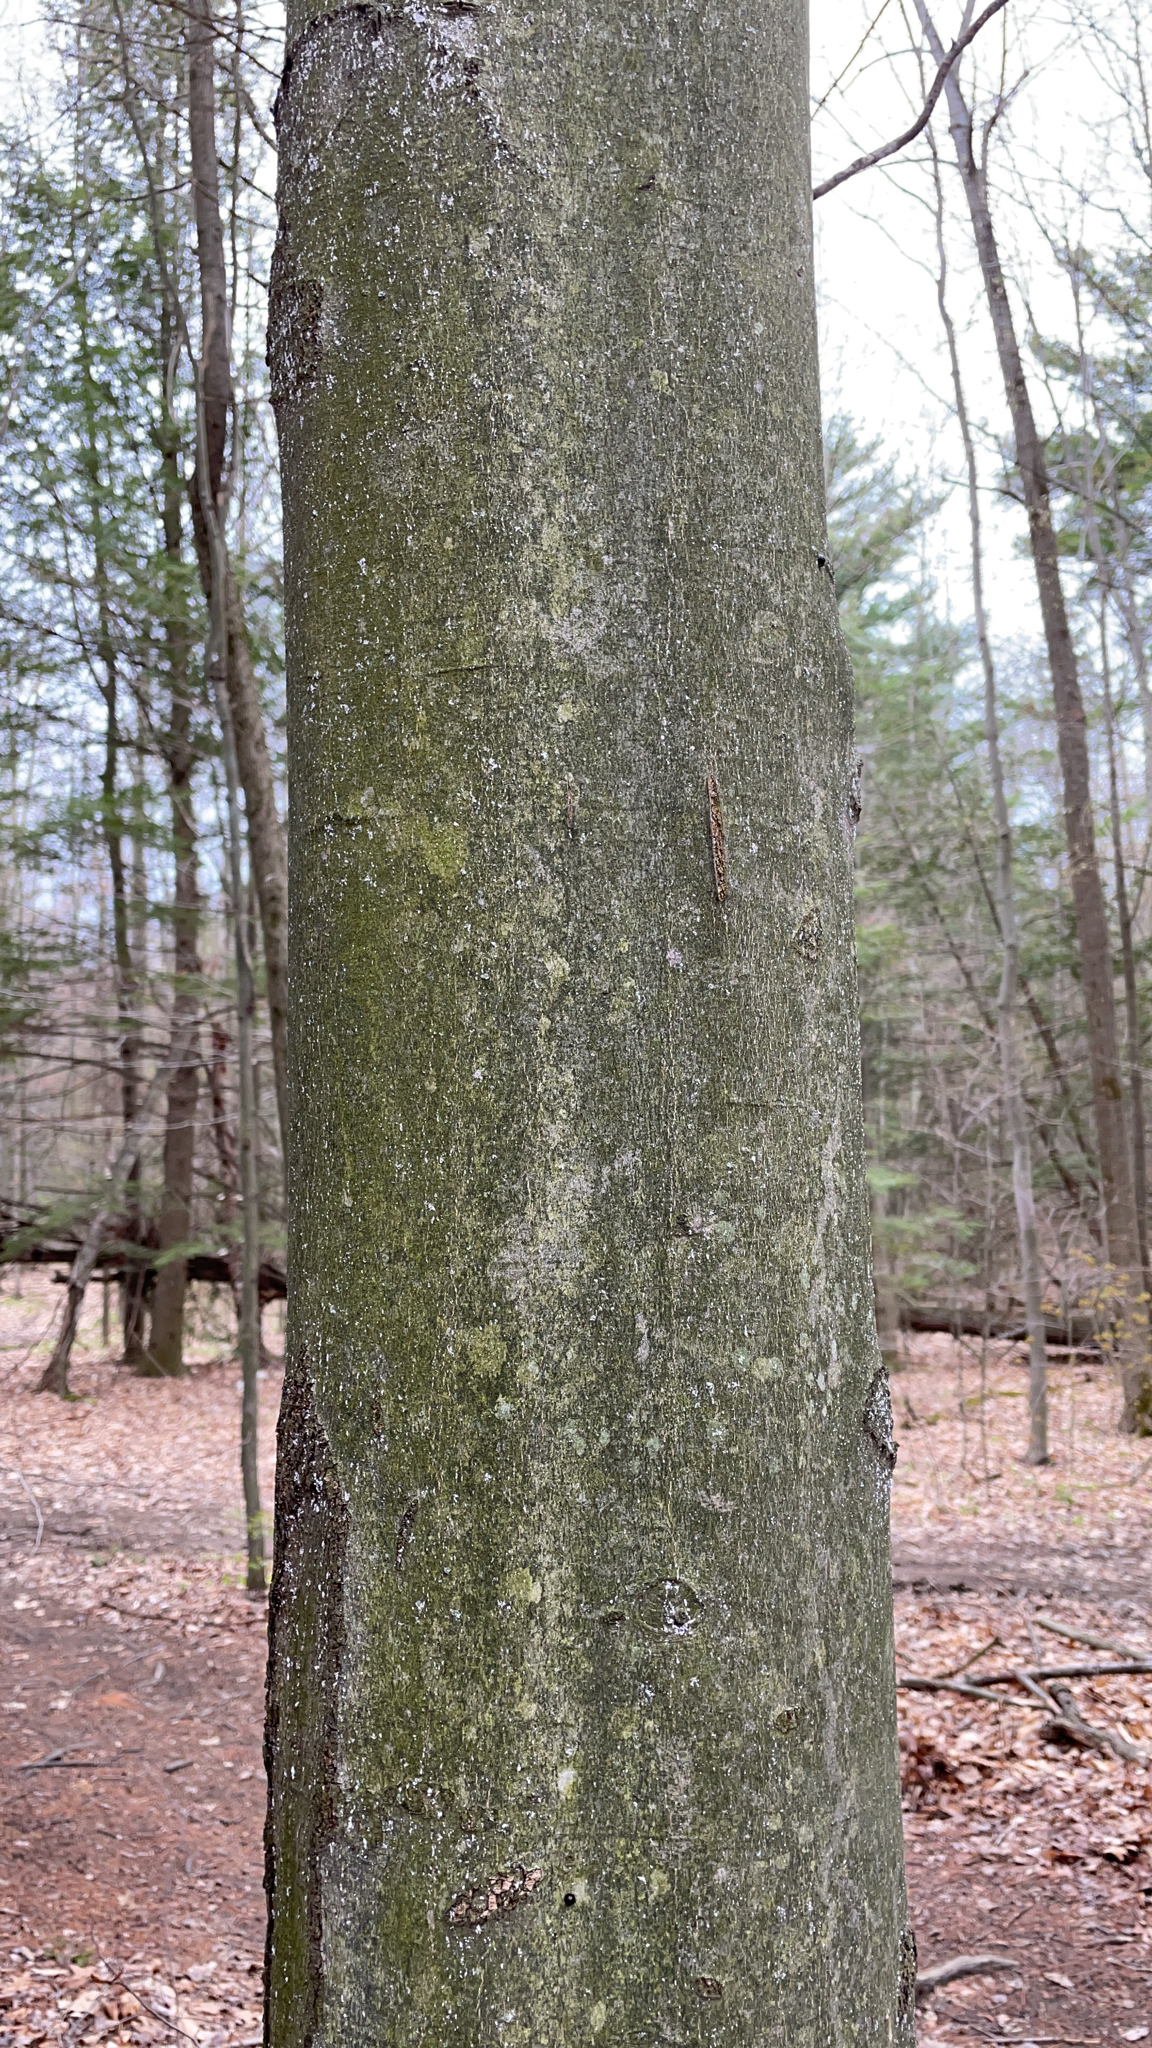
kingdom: Plantae
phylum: Tracheophyta
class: Magnoliopsida
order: Fagales
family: Fagaceae
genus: Fagus
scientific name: Fagus grandifolia
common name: American beech
